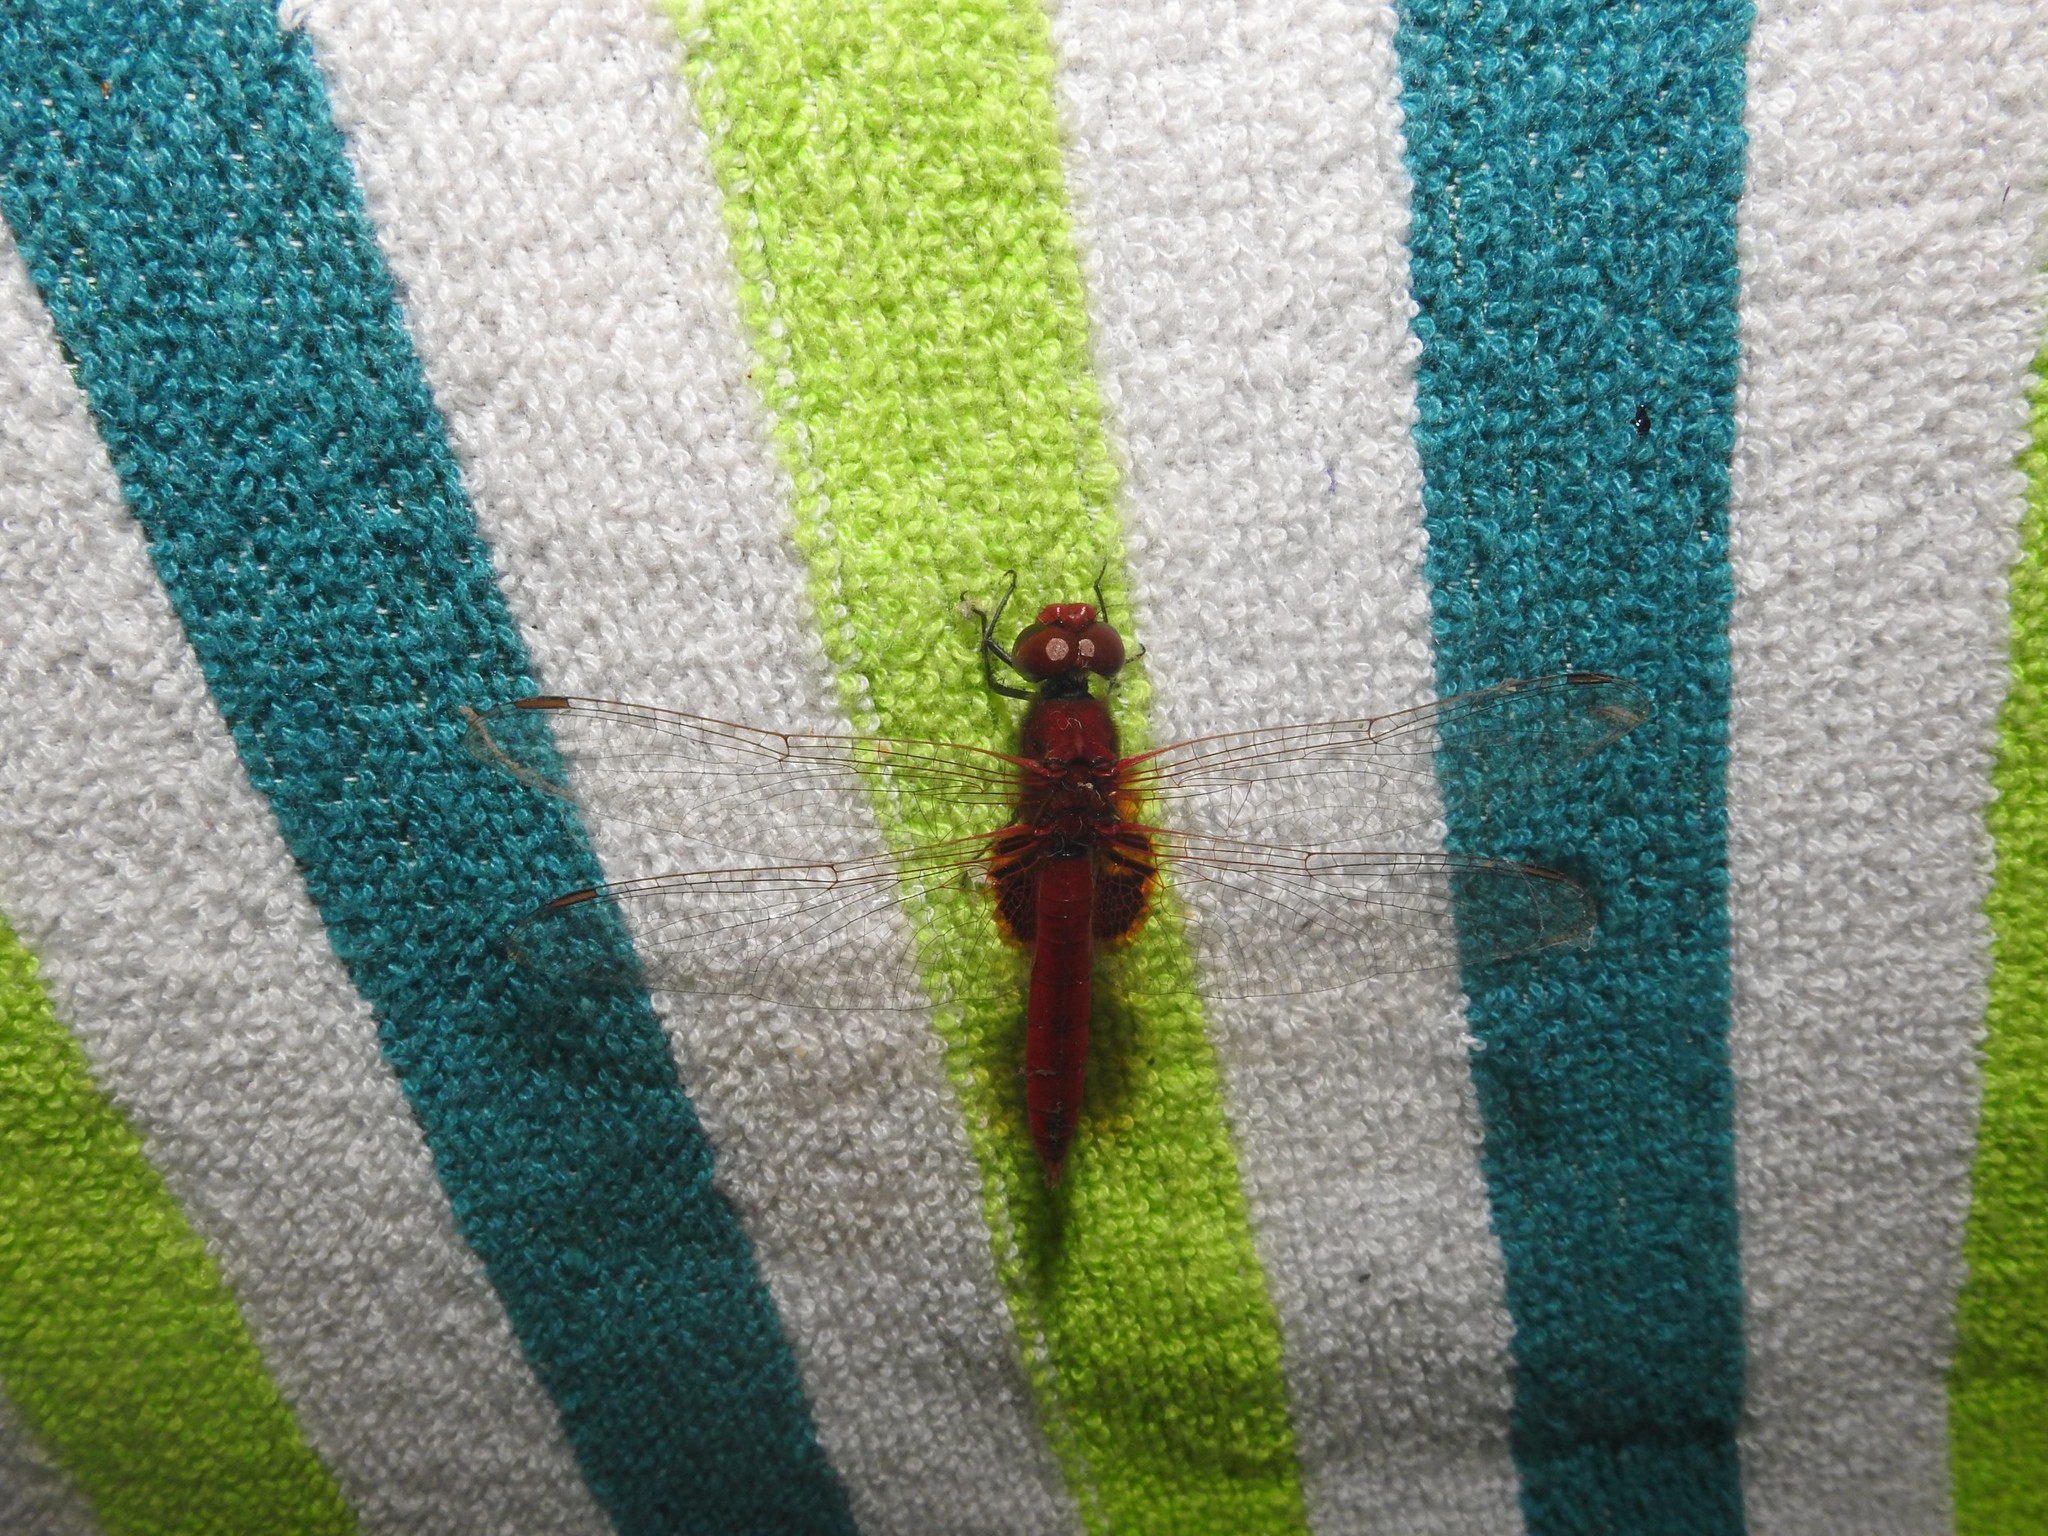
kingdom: Animalia
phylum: Arthropoda
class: Insecta
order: Odonata
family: Libellulidae
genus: Urothemis
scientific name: Urothemis signata
